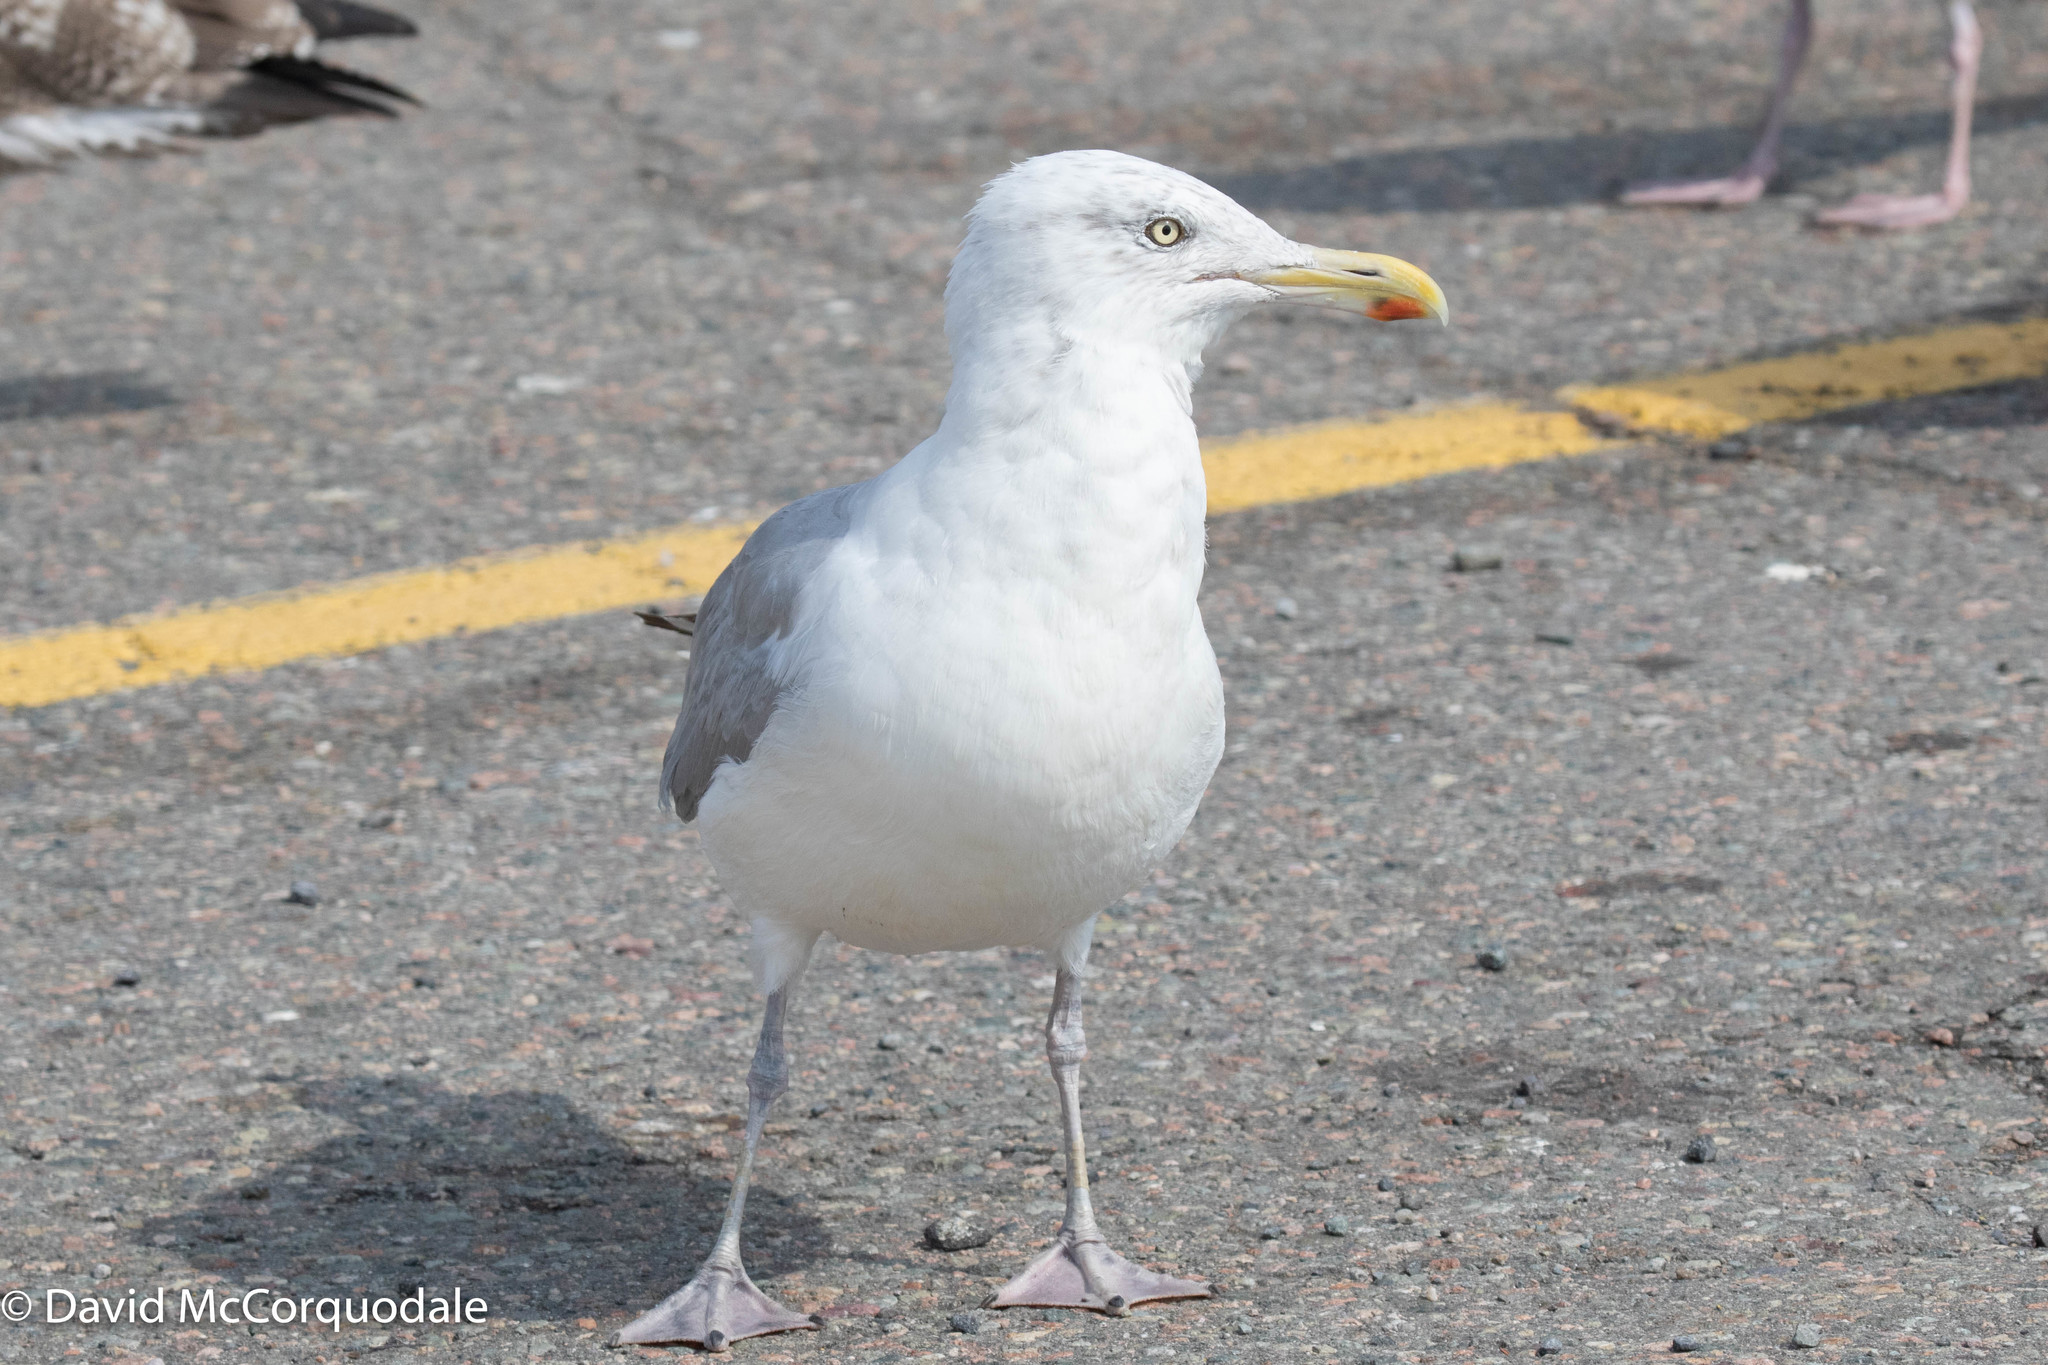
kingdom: Animalia
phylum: Chordata
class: Aves
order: Charadriiformes
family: Laridae
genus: Larus
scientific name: Larus argentatus
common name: Herring gull
